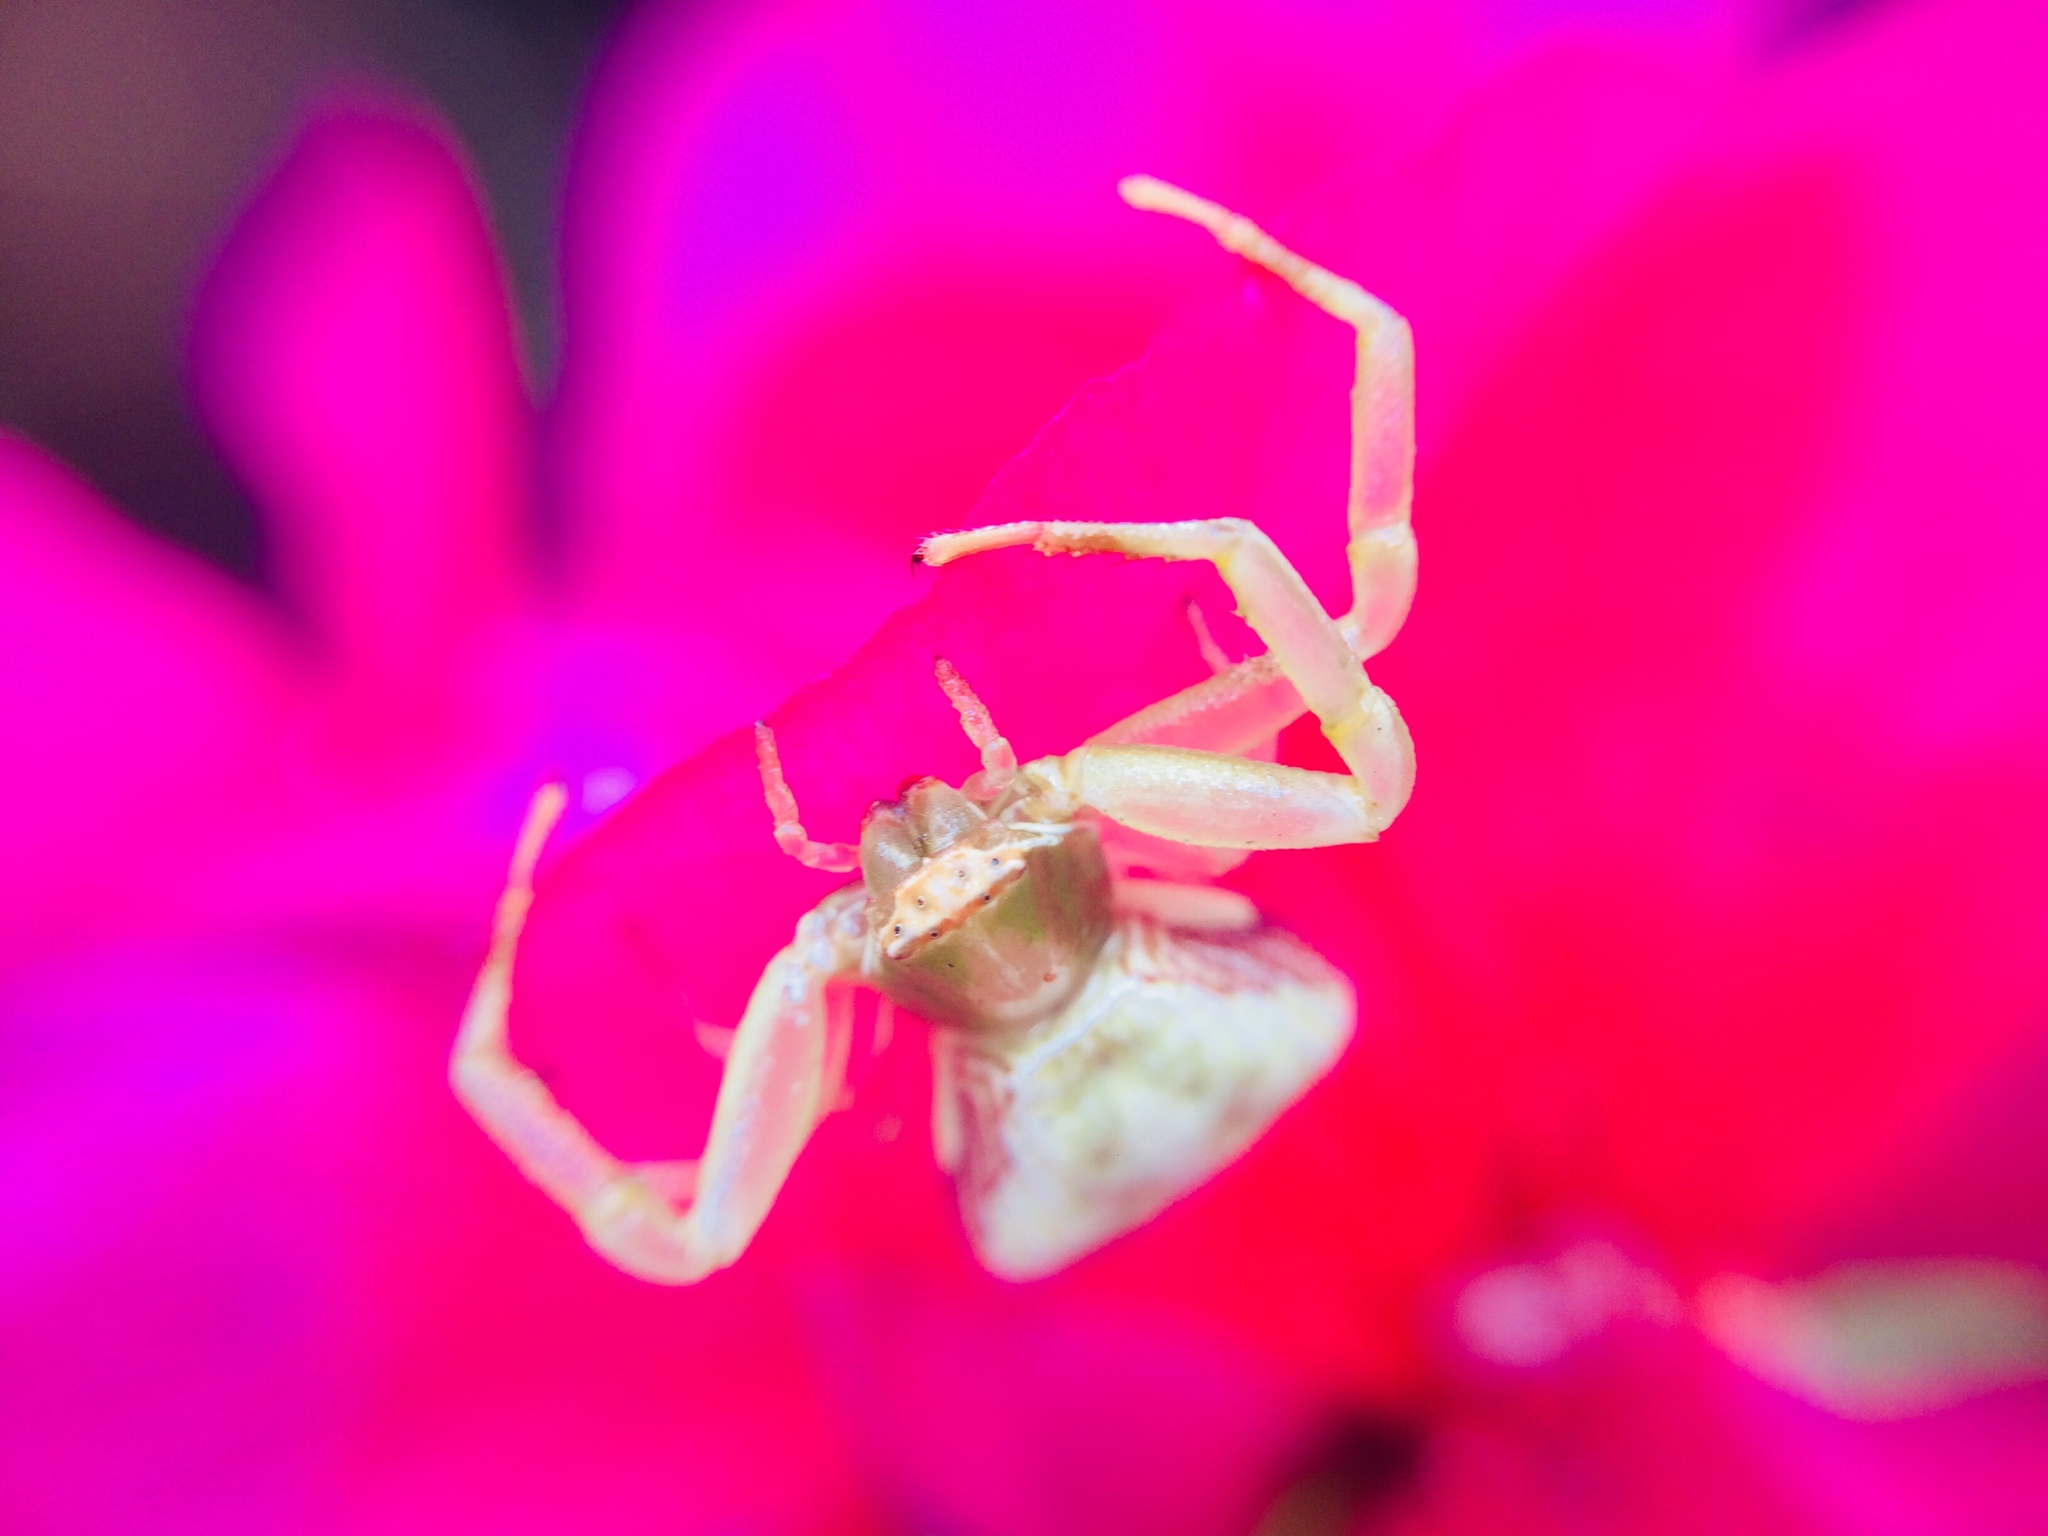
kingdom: Animalia
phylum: Arthropoda
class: Arachnida
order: Araneae
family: Thomisidae
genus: Misumenoides
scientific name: Misumenoides formosipes
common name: White-banded crab spider
